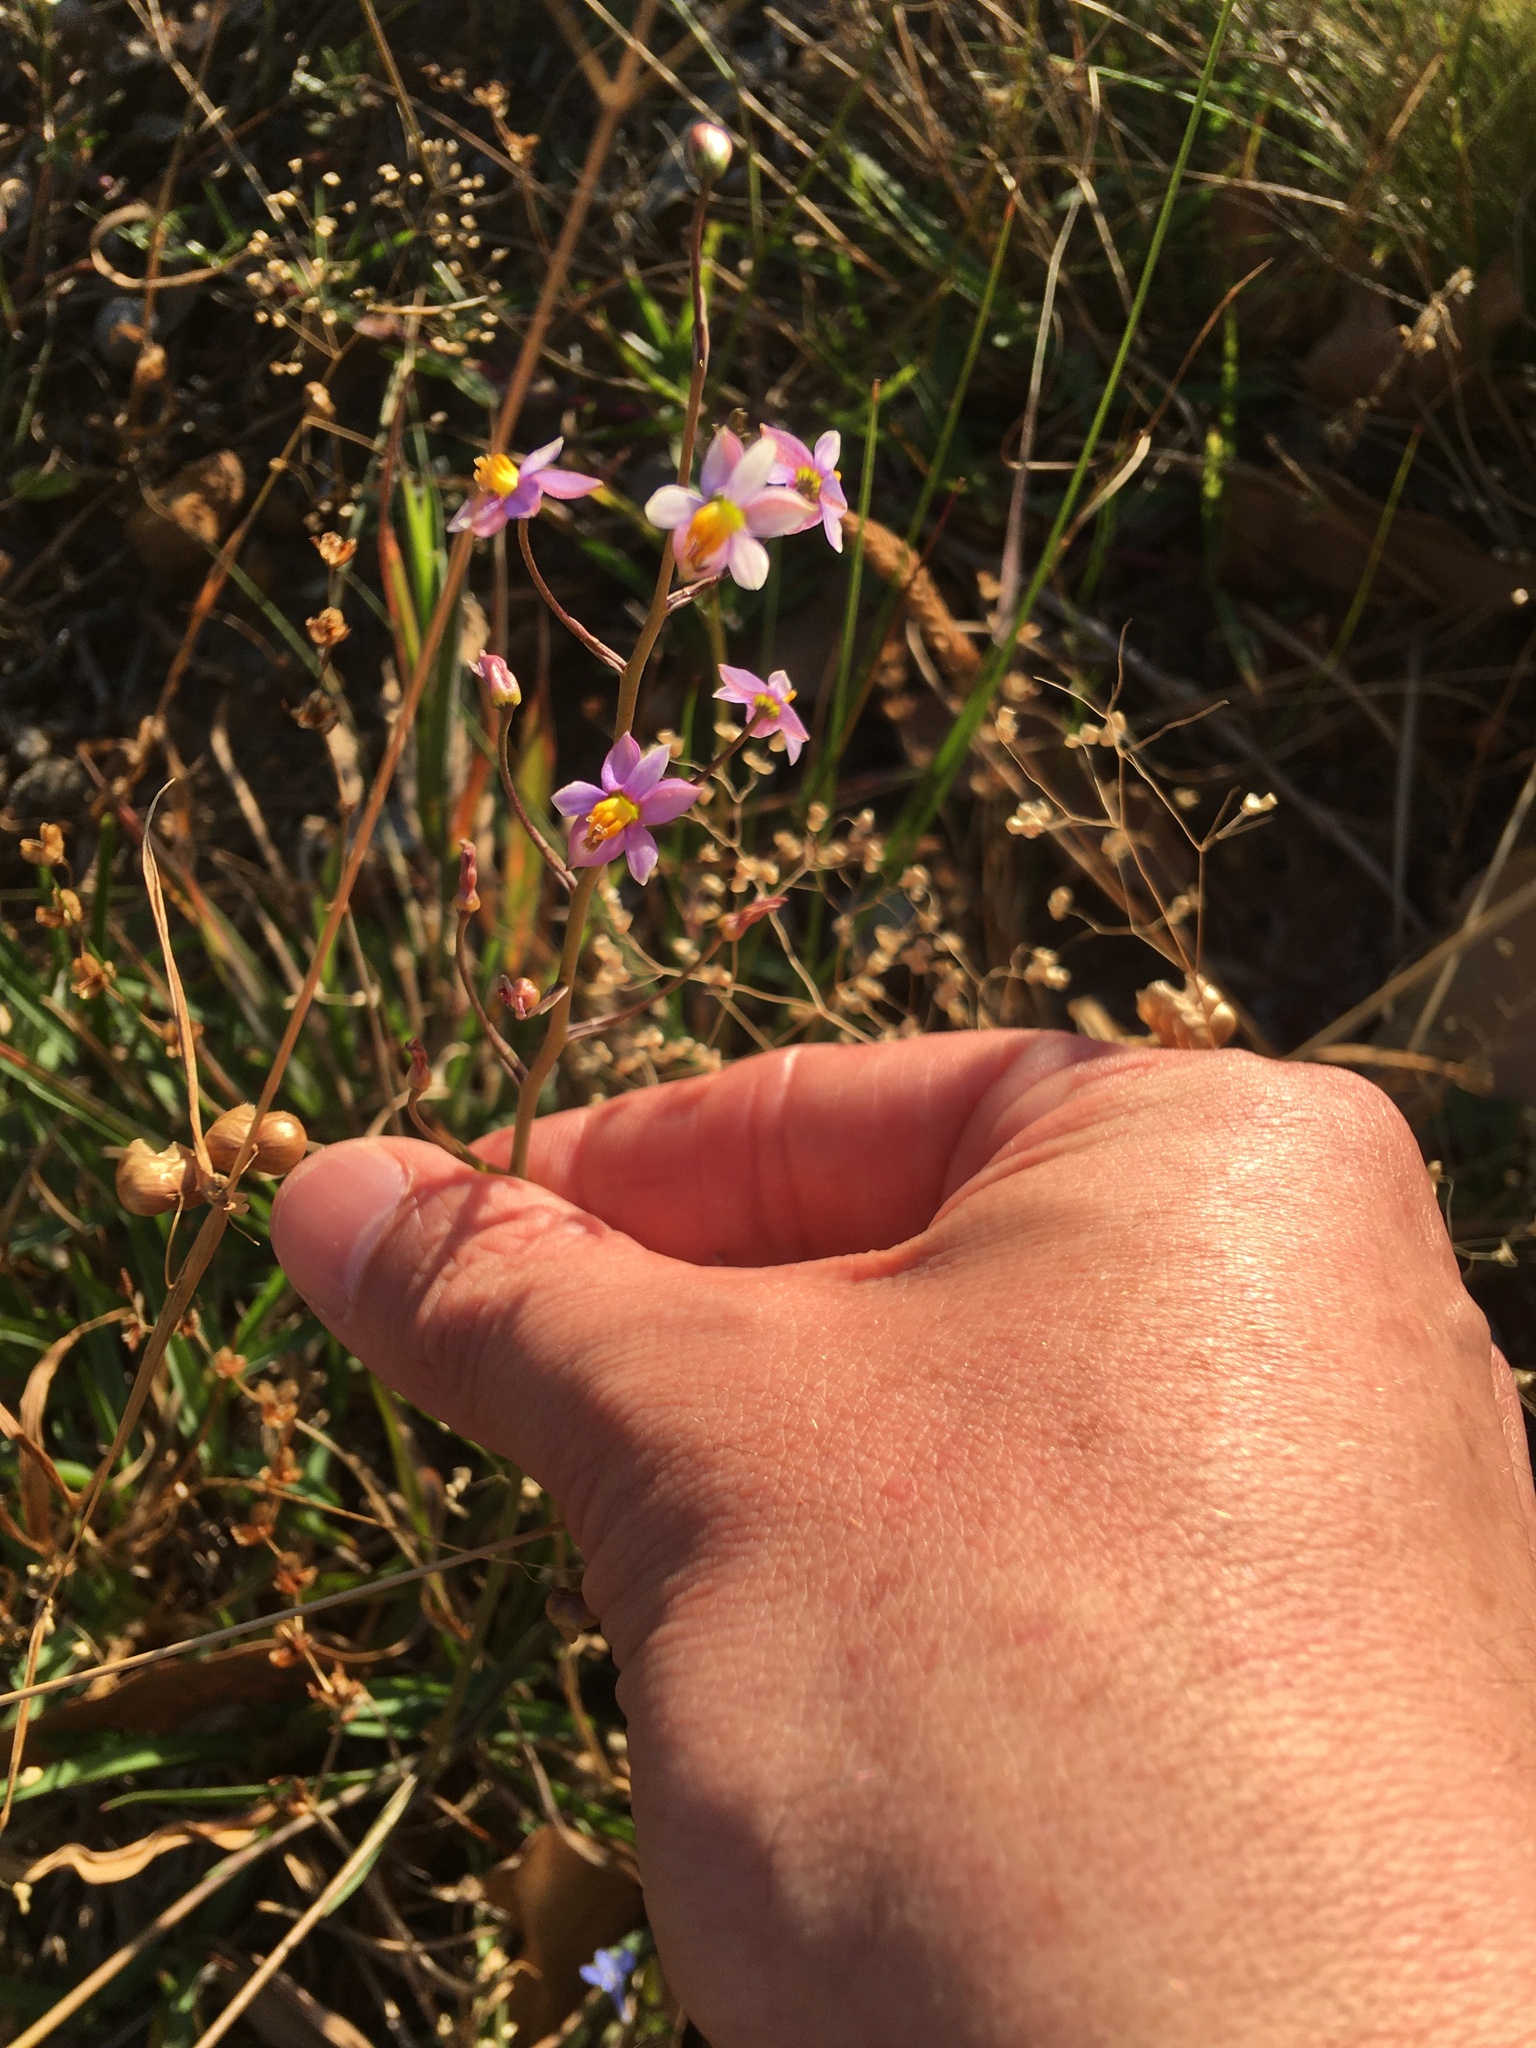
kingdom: Plantae
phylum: Tracheophyta
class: Liliopsida
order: Asparagales
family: Tecophilaeaceae
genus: Cyanella
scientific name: Cyanella hyacinthoides
